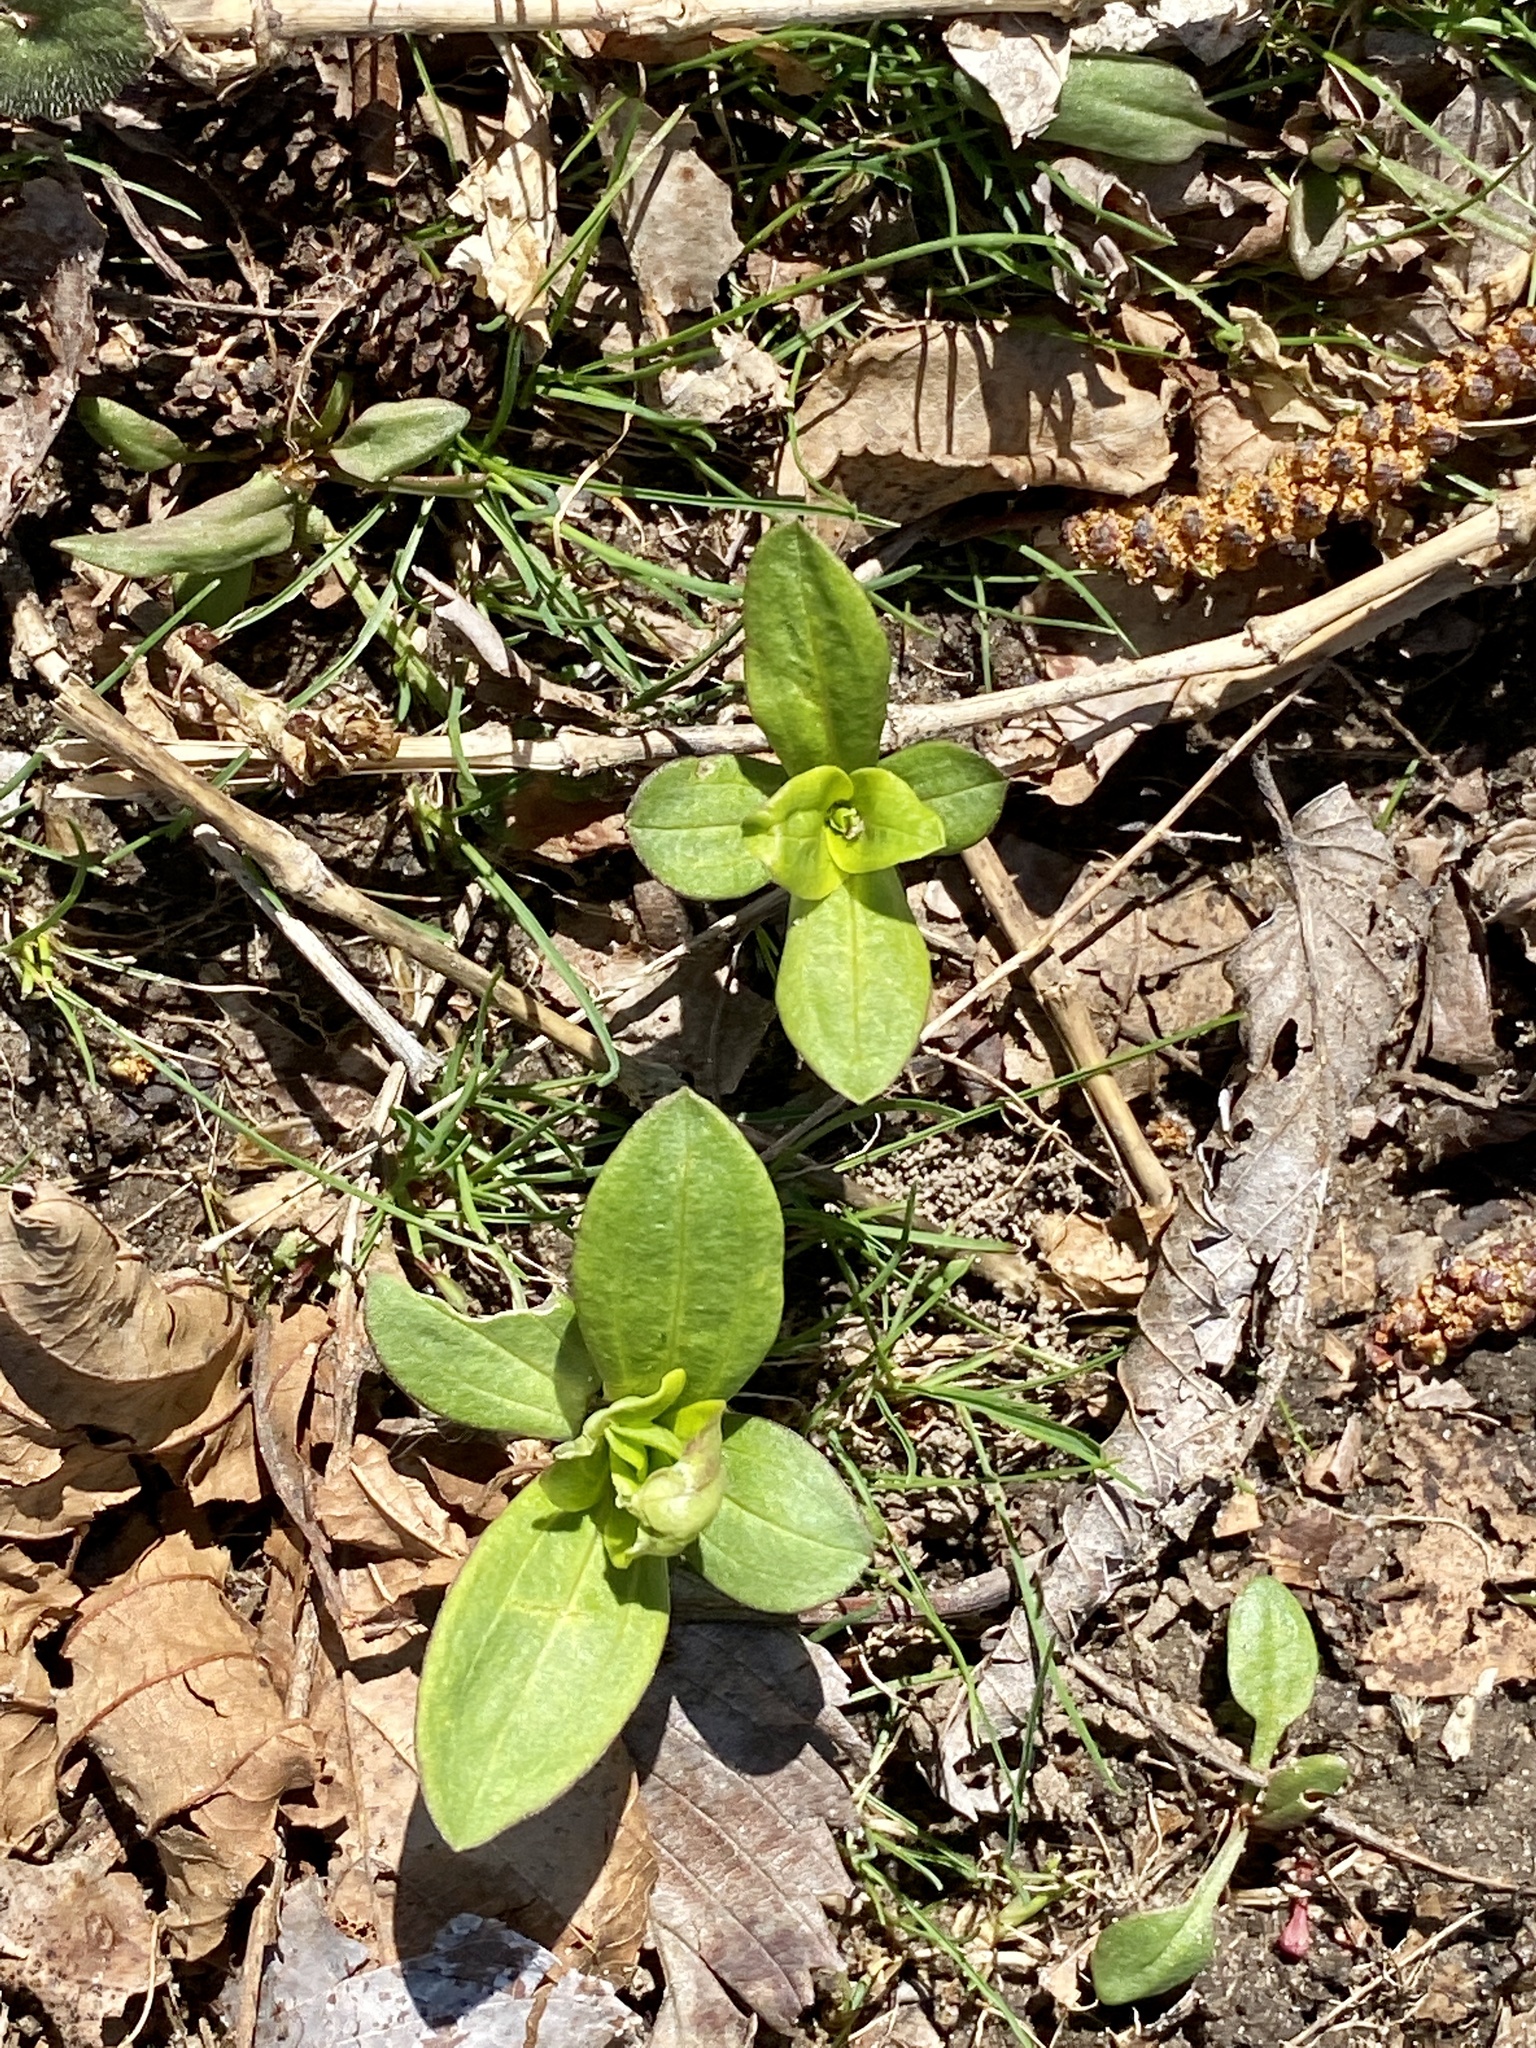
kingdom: Plantae
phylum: Tracheophyta
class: Magnoliopsida
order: Caryophyllales
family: Caryophyllaceae
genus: Saponaria
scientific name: Saponaria officinalis
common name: Soapwort
